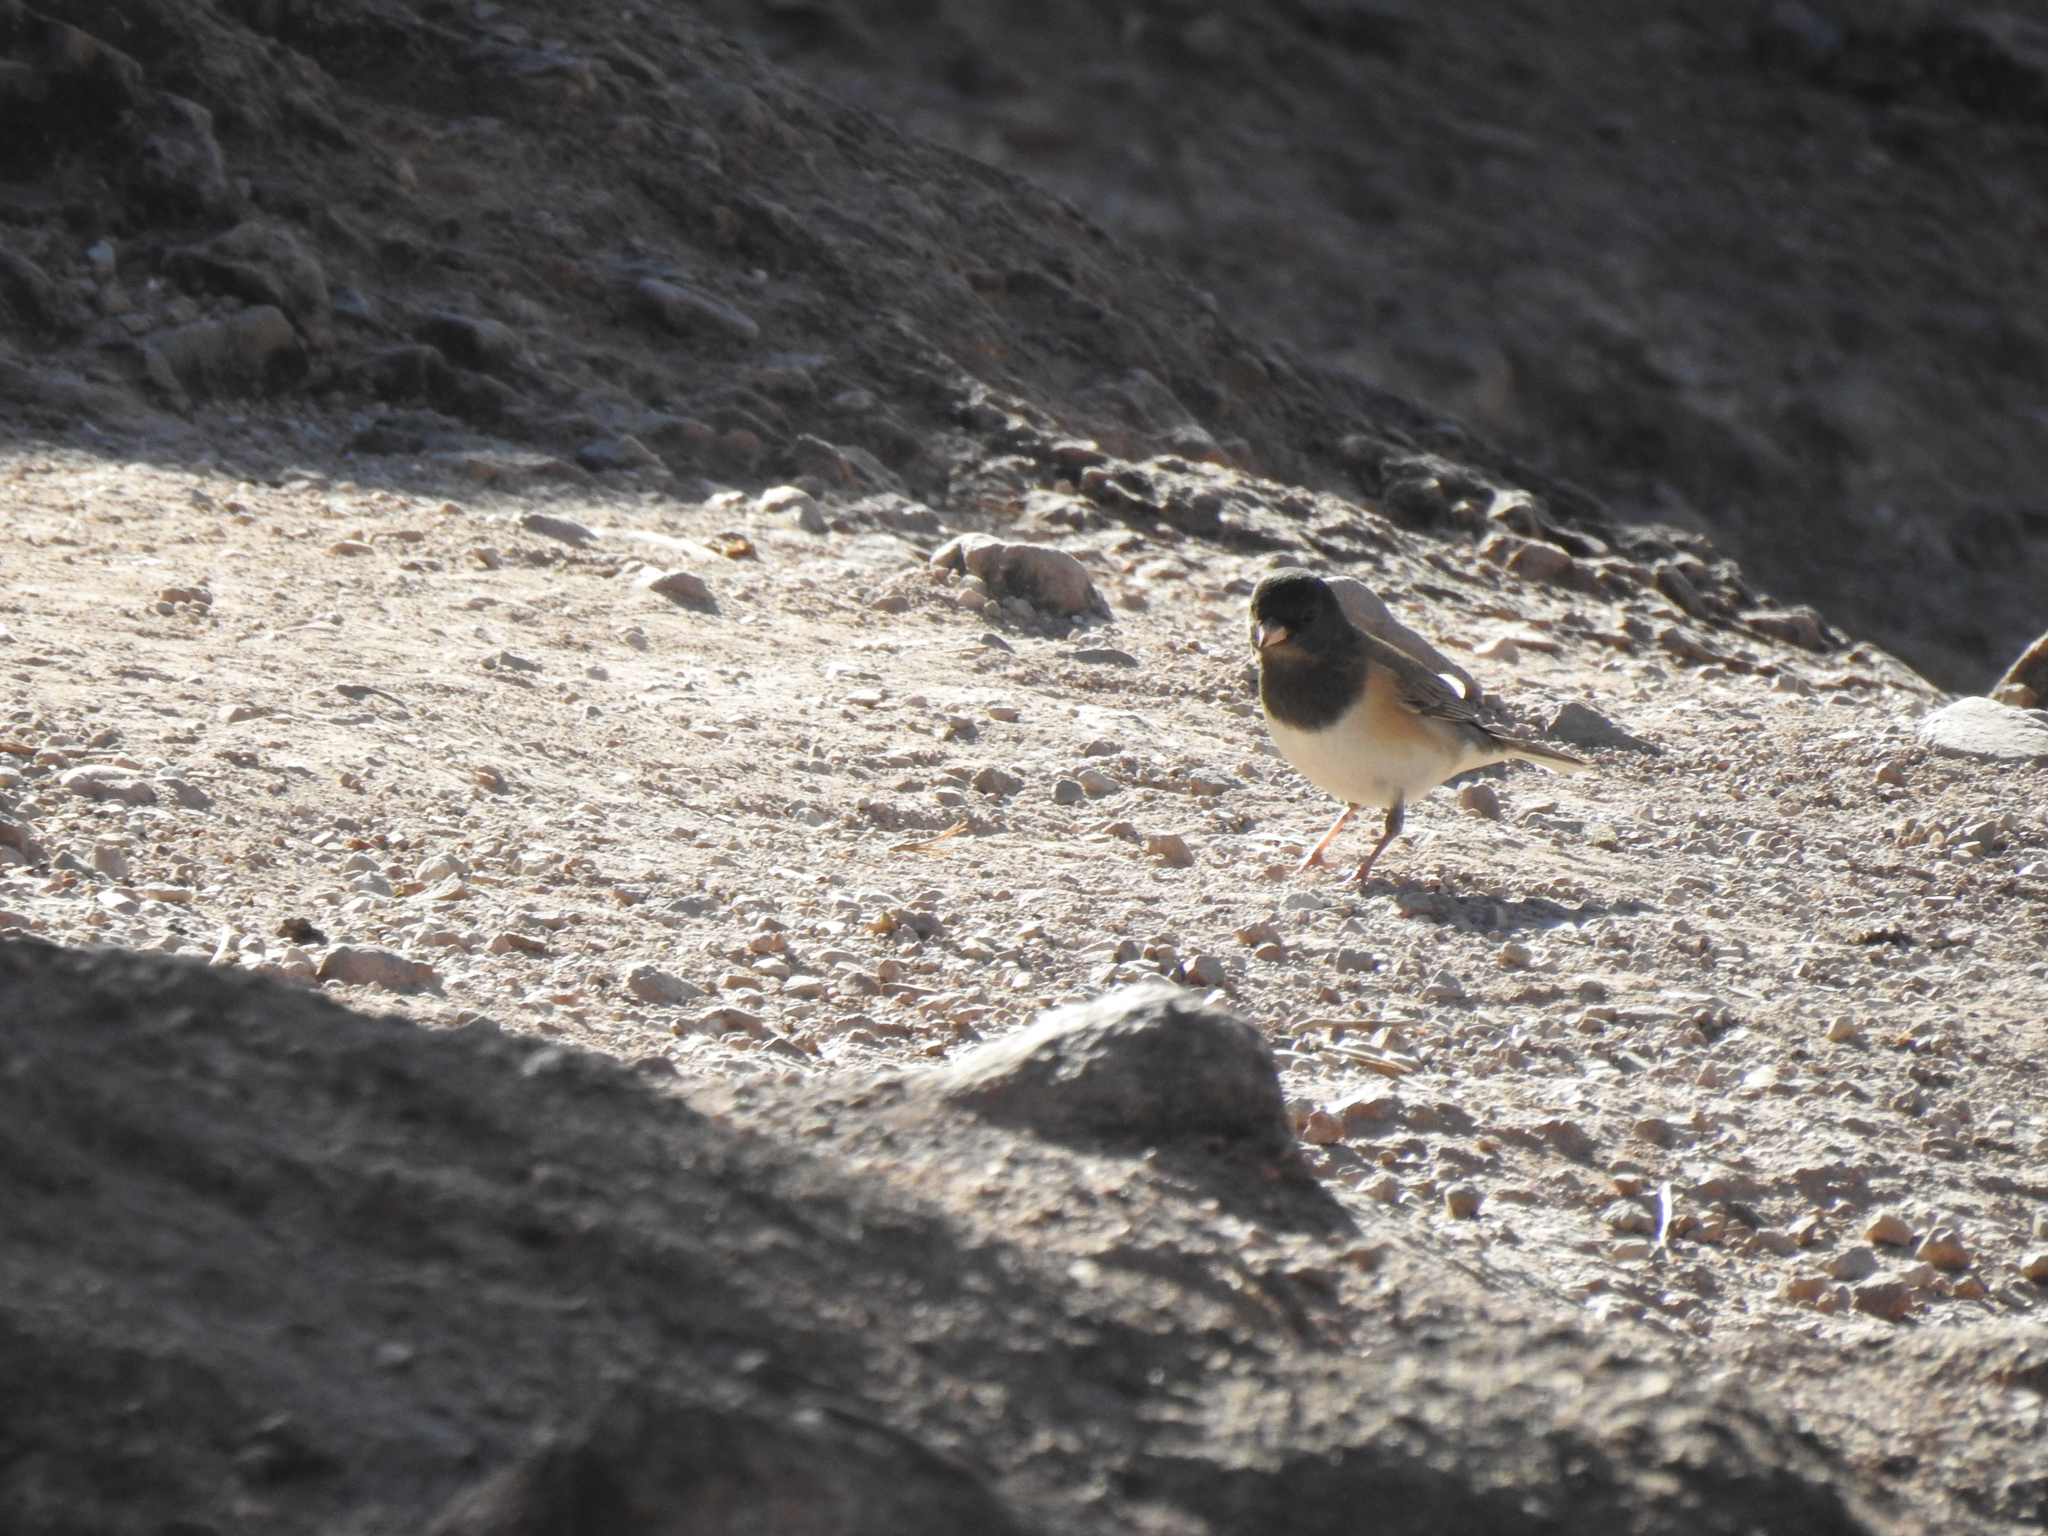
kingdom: Animalia
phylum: Chordata
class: Aves
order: Passeriformes
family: Passerellidae
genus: Junco
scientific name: Junco hyemalis
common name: Dark-eyed junco
